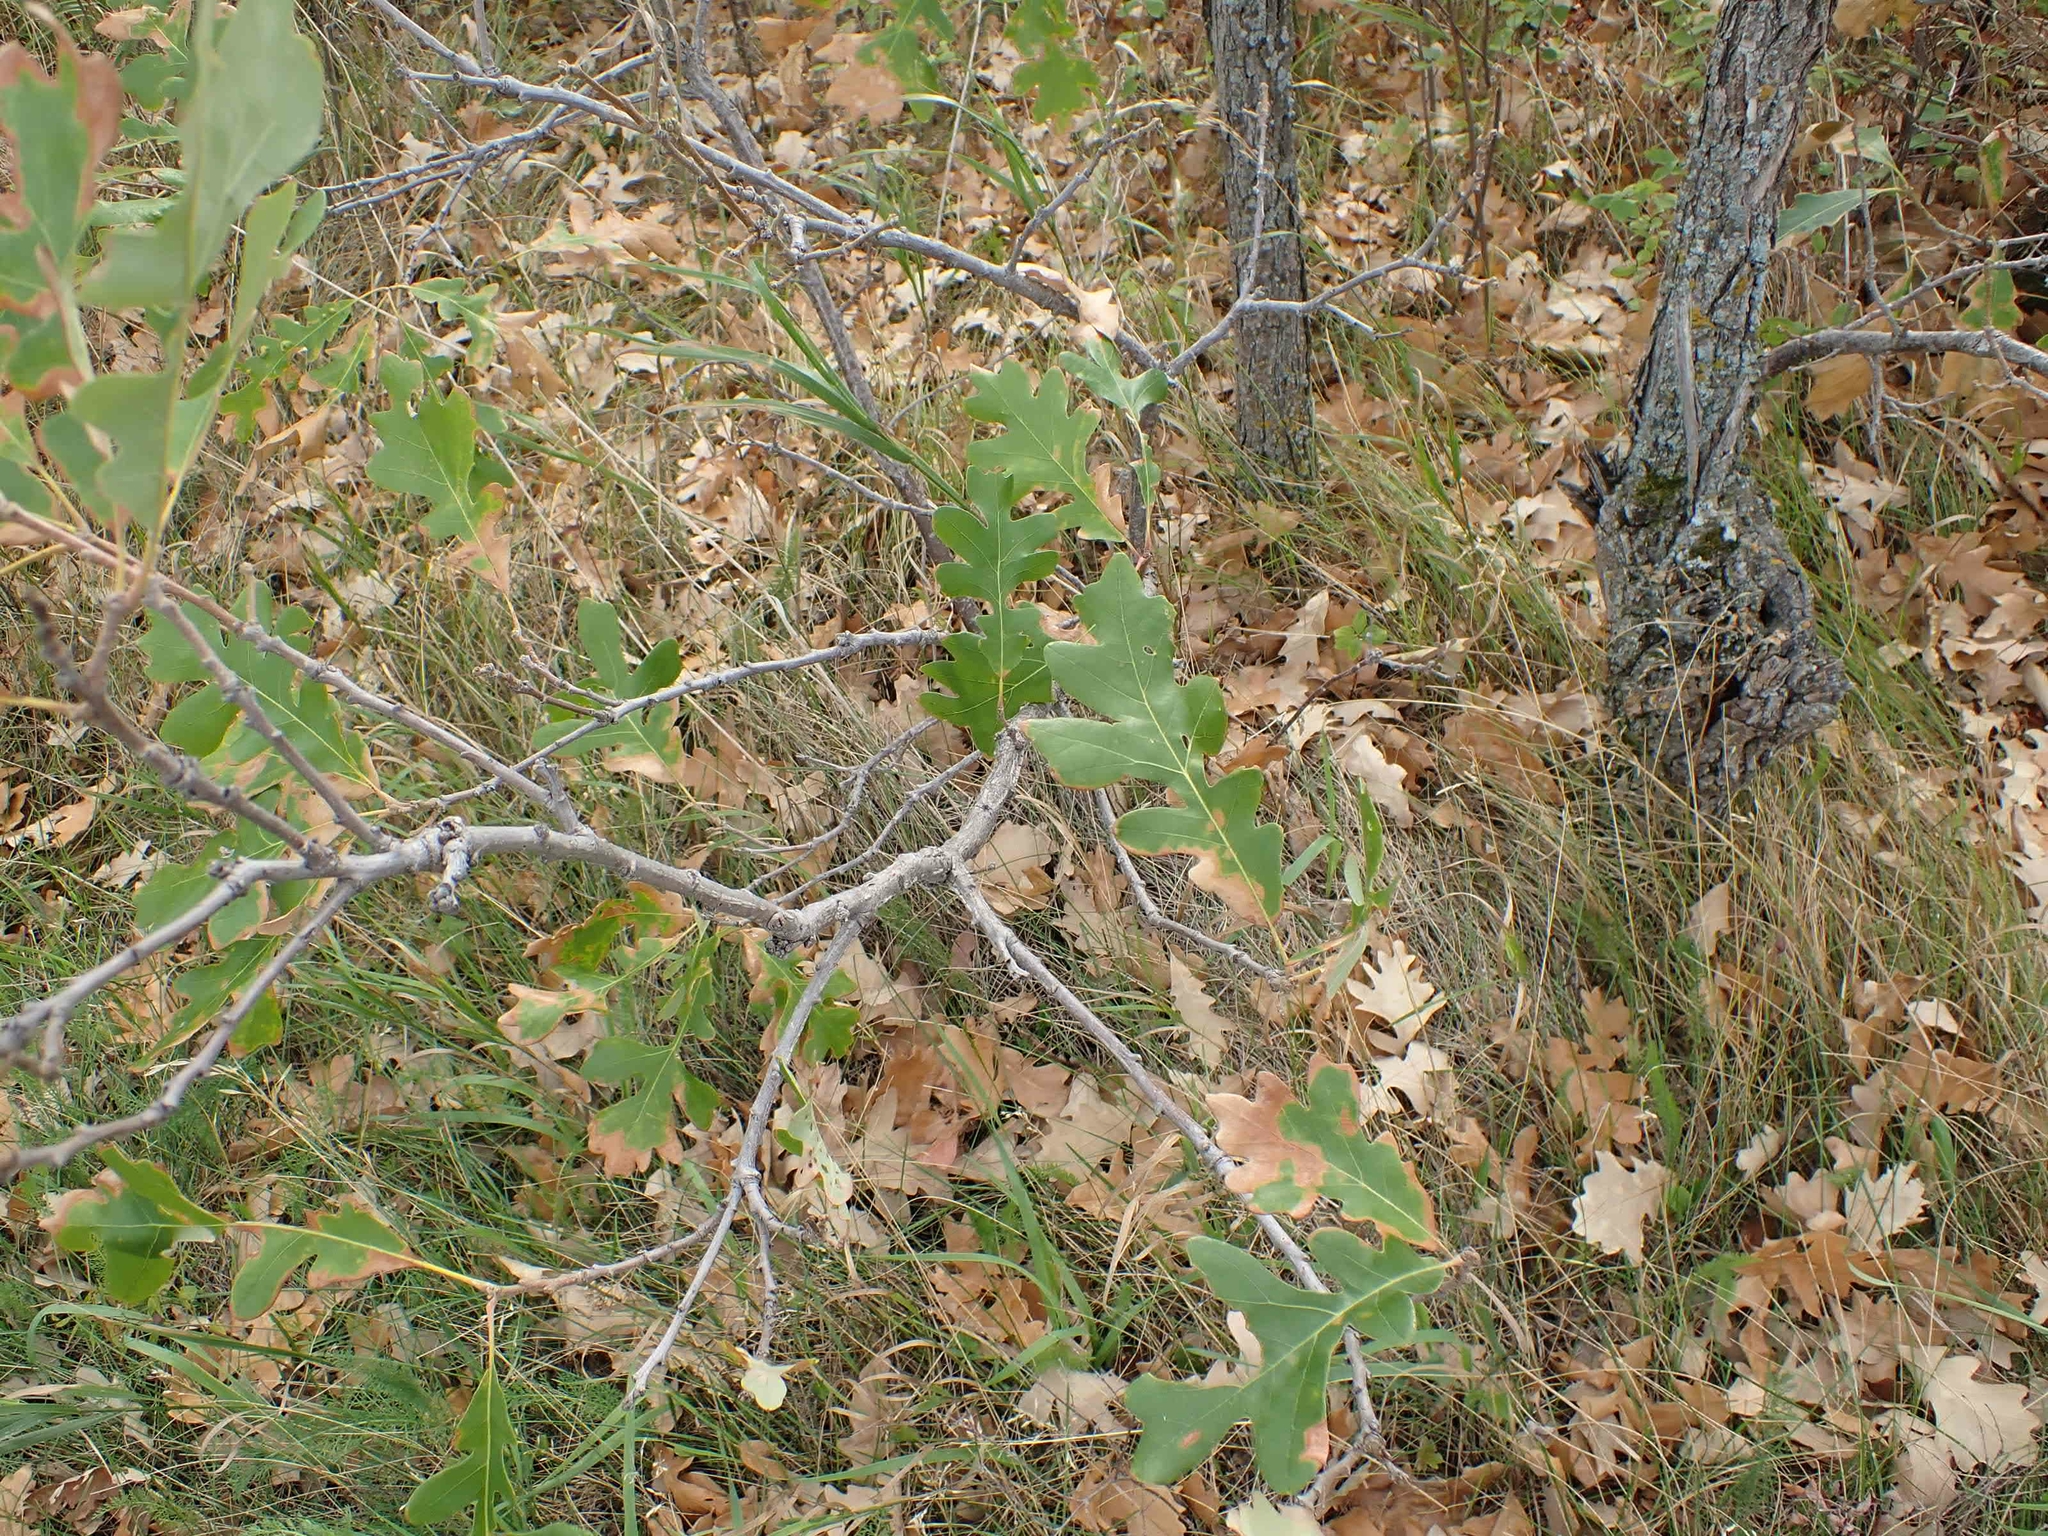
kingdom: Plantae
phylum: Tracheophyta
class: Magnoliopsida
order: Fagales
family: Fagaceae
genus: Quercus
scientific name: Quercus macrocarpa
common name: Bur oak
